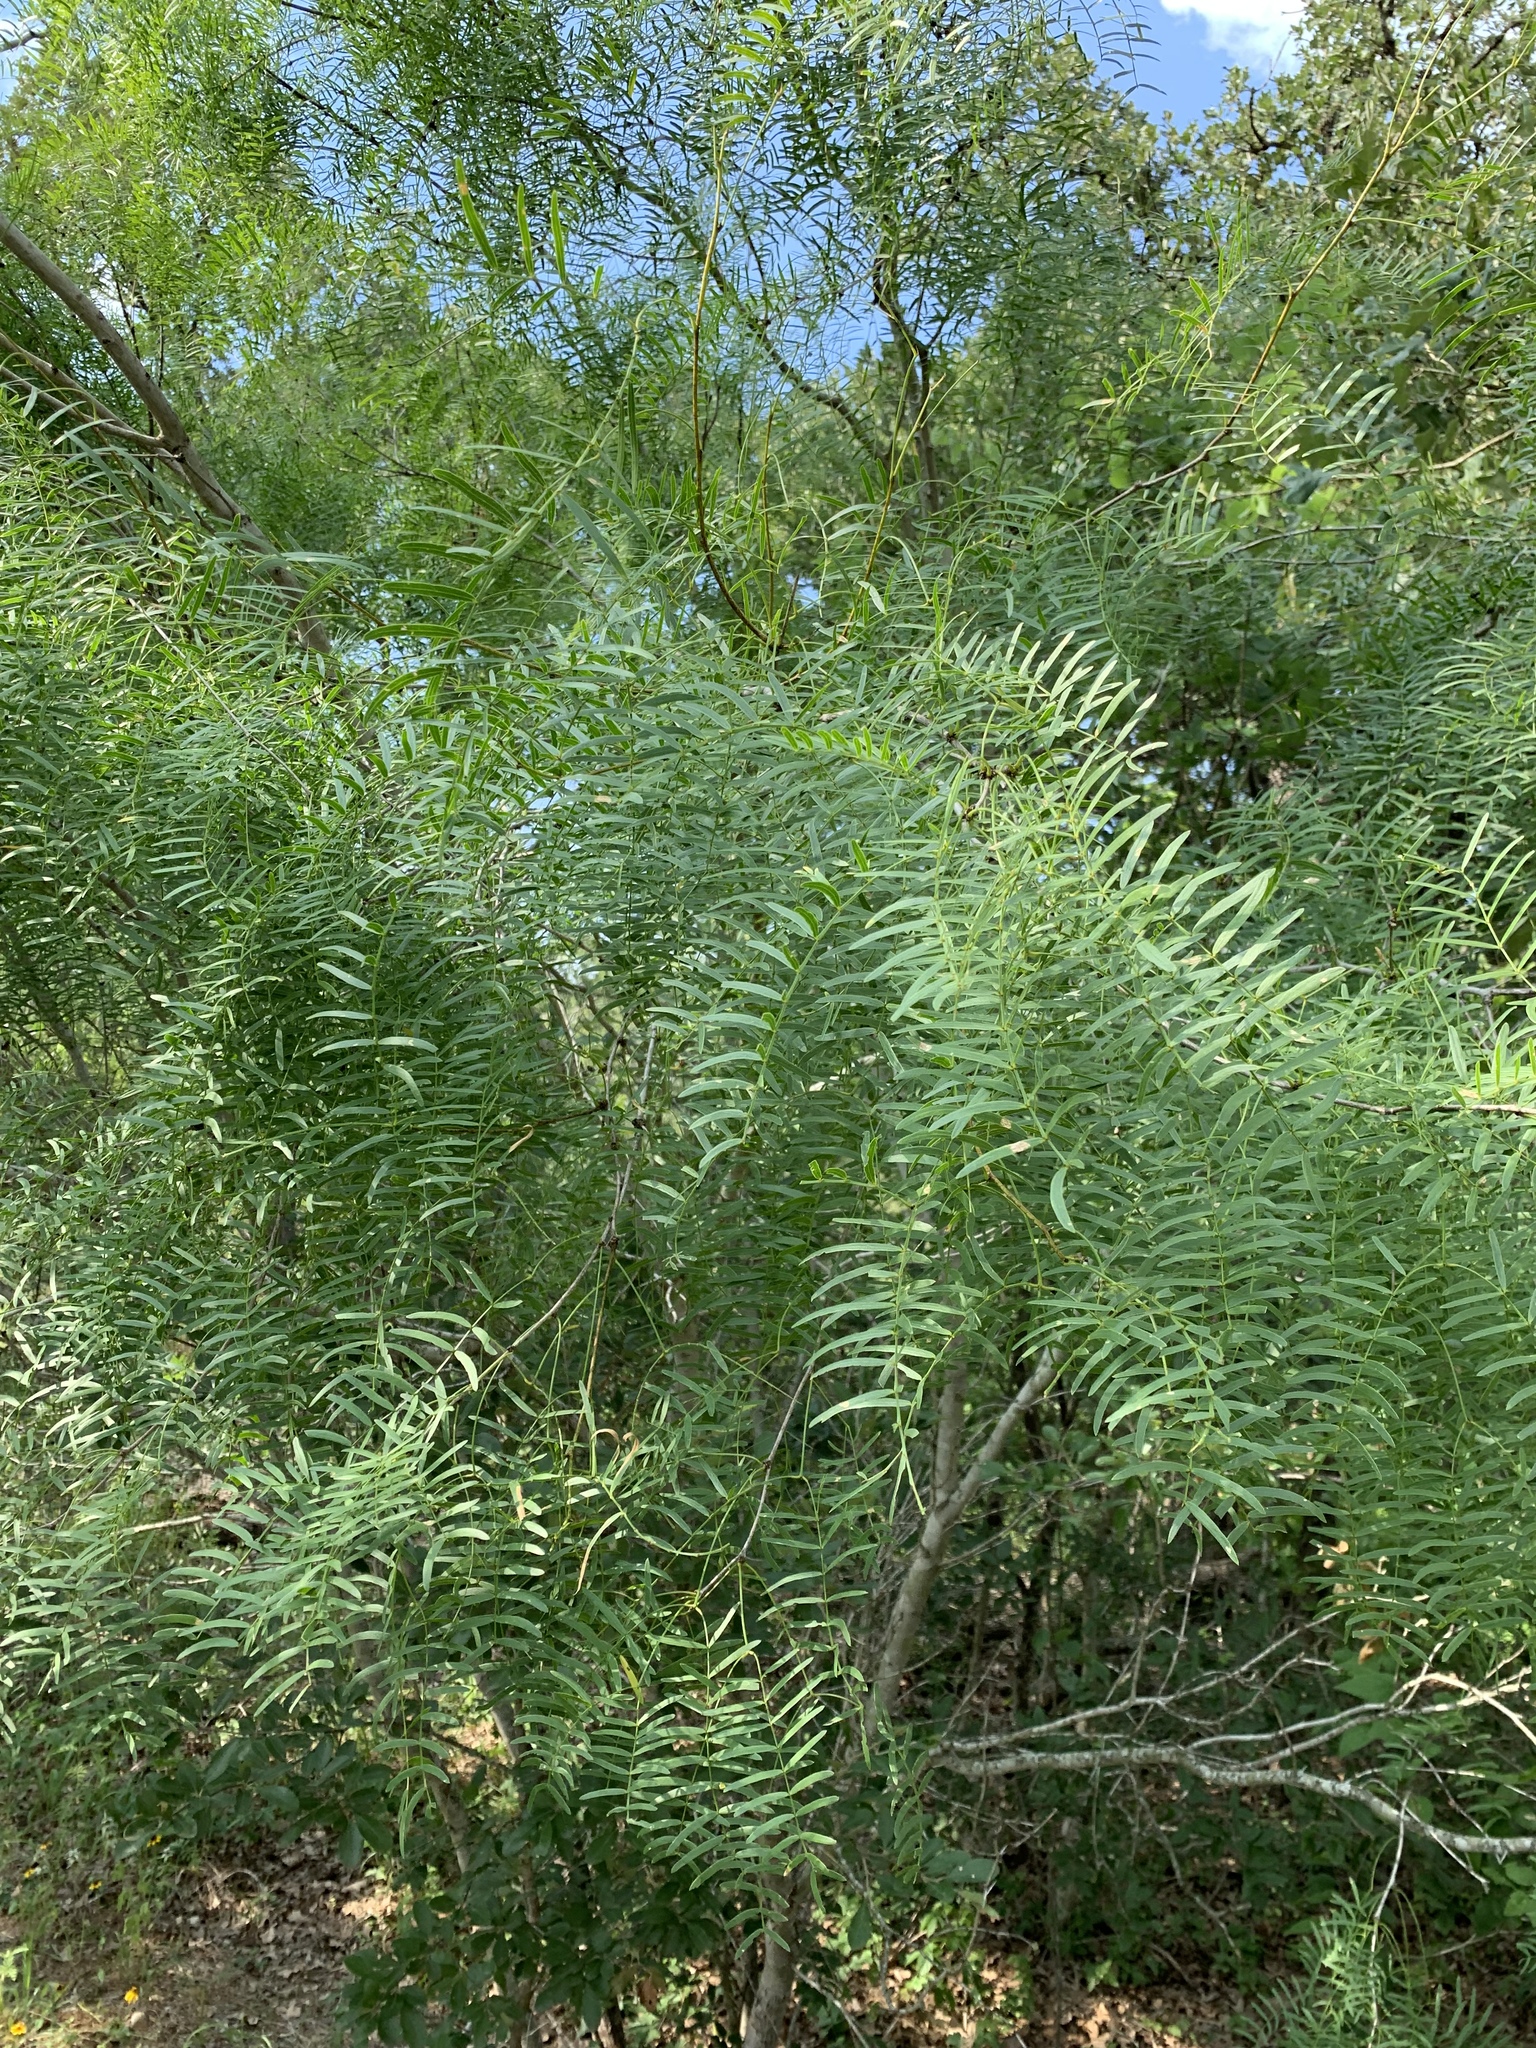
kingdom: Plantae
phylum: Tracheophyta
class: Magnoliopsida
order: Fabales
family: Fabaceae
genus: Prosopis
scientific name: Prosopis glandulosa
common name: Honey mesquite
